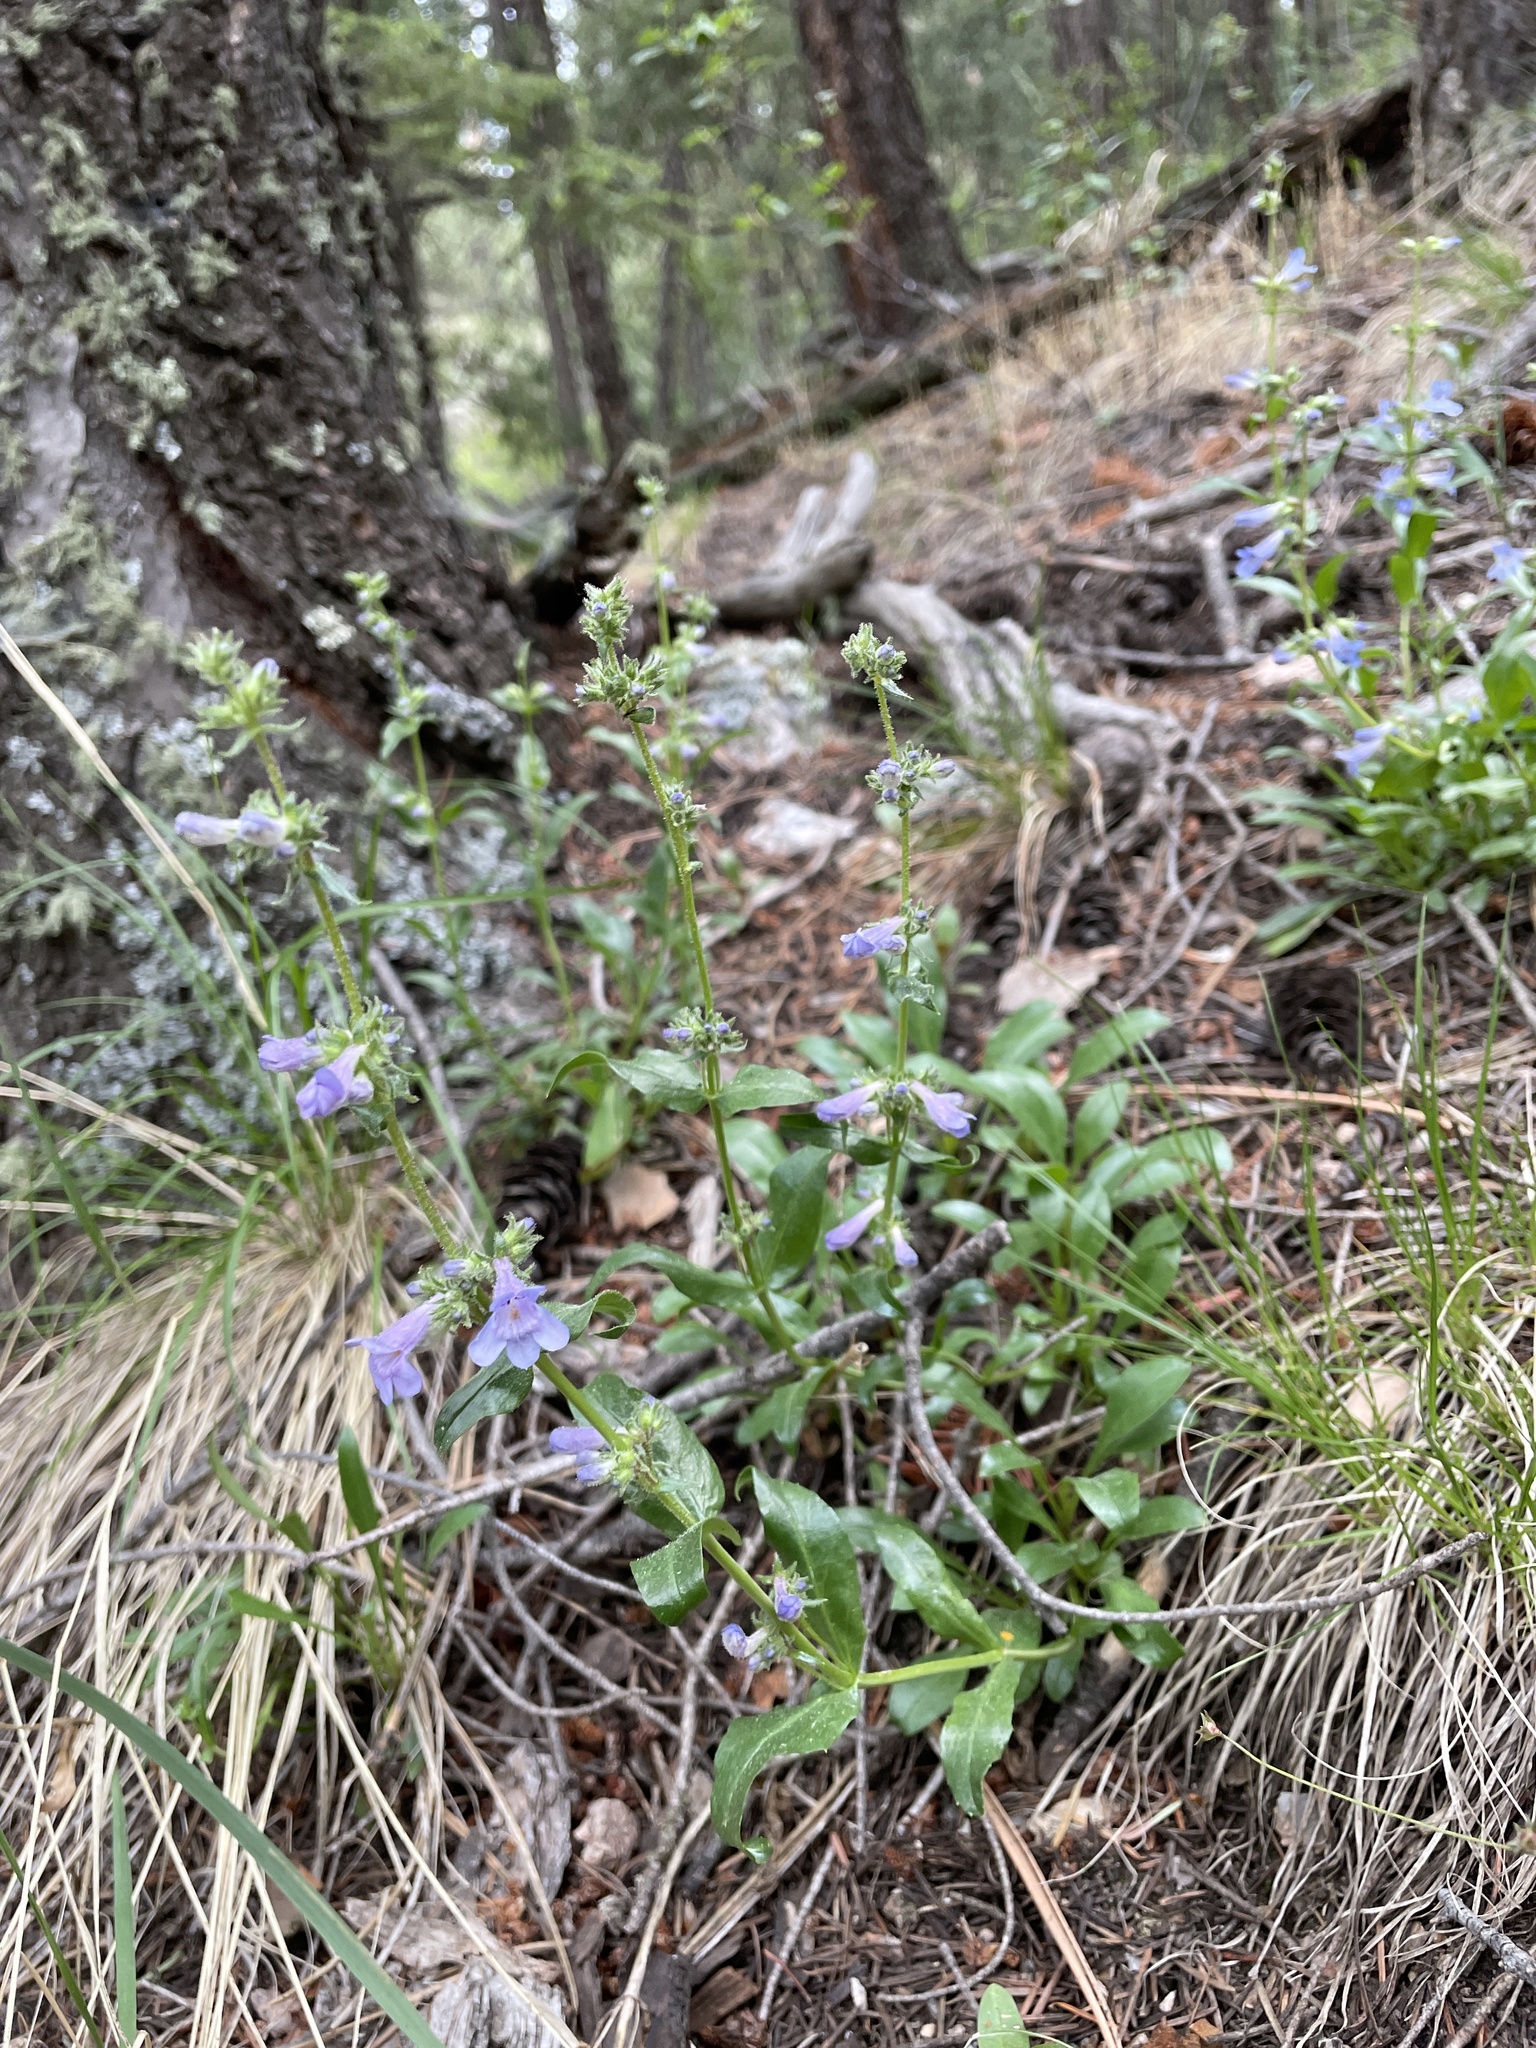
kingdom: Plantae
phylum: Tracheophyta
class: Magnoliopsida
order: Lamiales
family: Plantaginaceae
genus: Penstemon
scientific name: Penstemon virens
